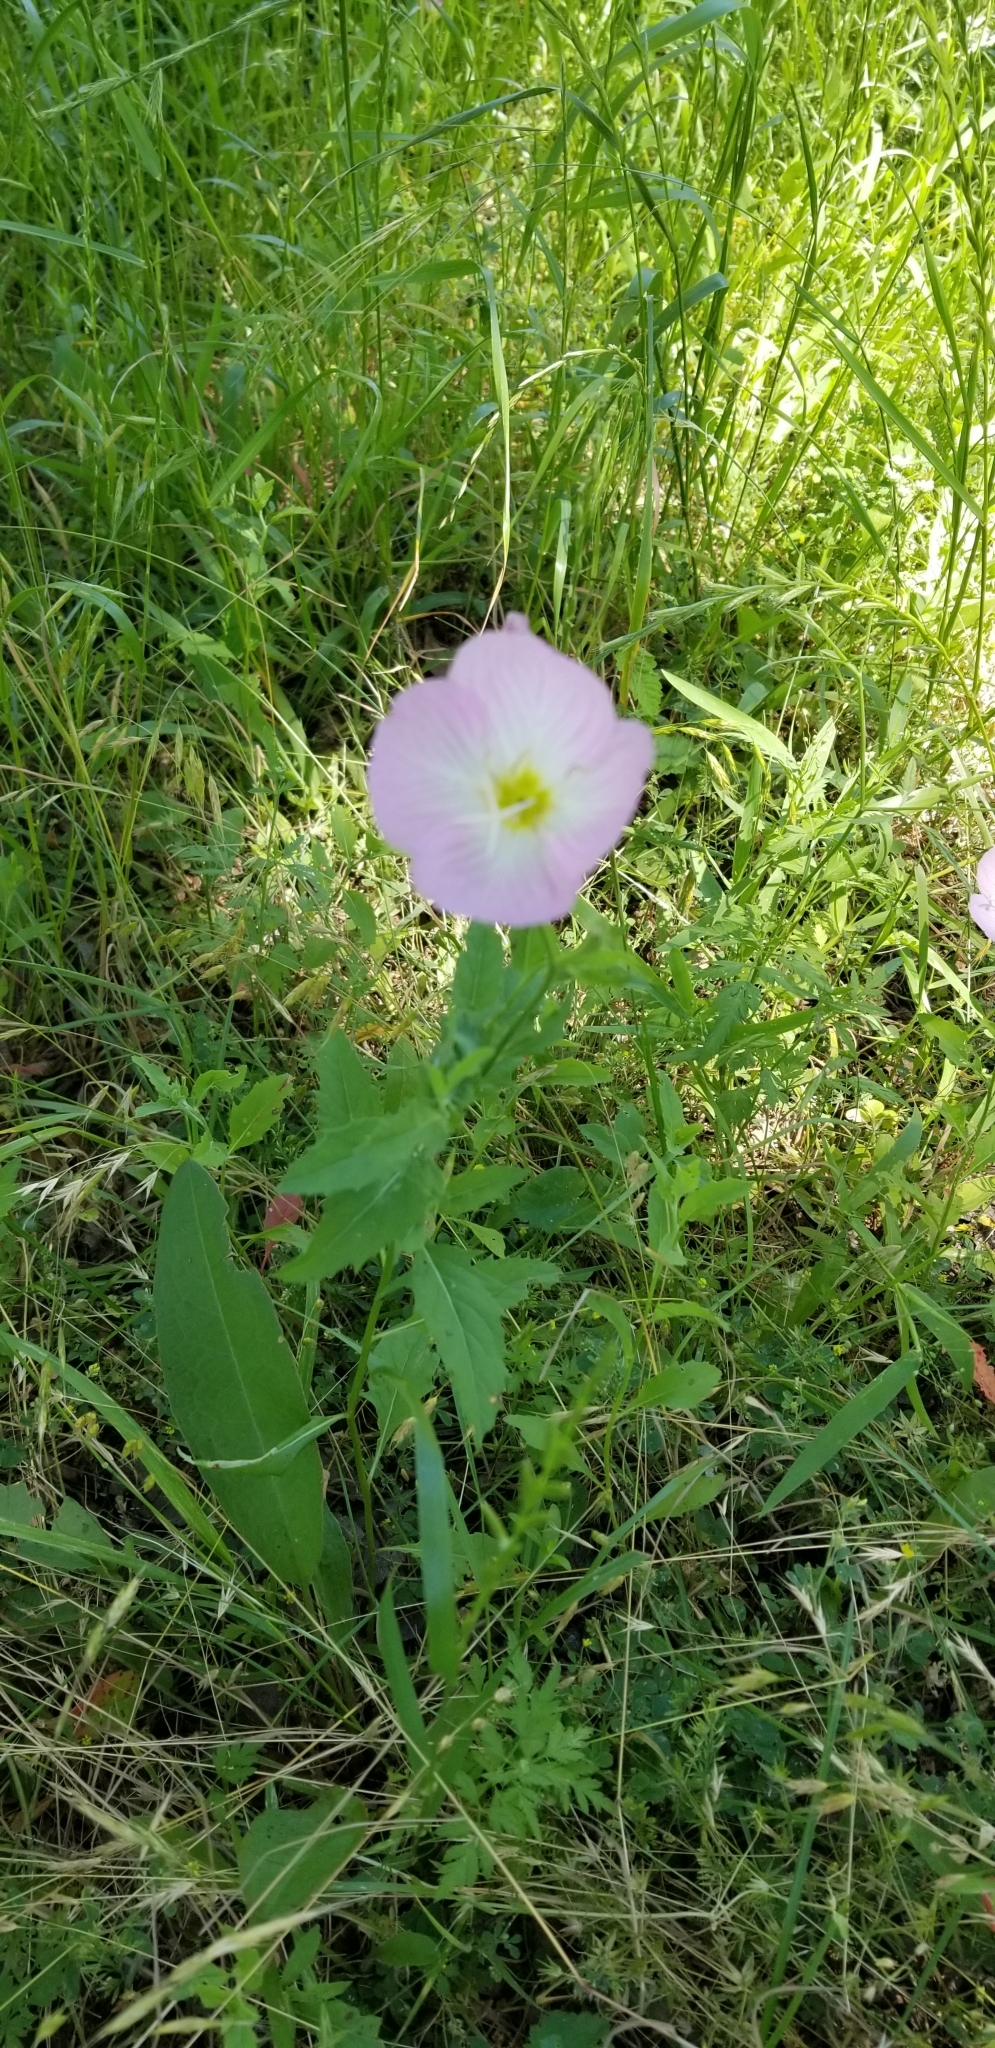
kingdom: Plantae
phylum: Tracheophyta
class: Magnoliopsida
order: Myrtales
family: Onagraceae
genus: Oenothera
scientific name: Oenothera speciosa
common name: White evening-primrose
